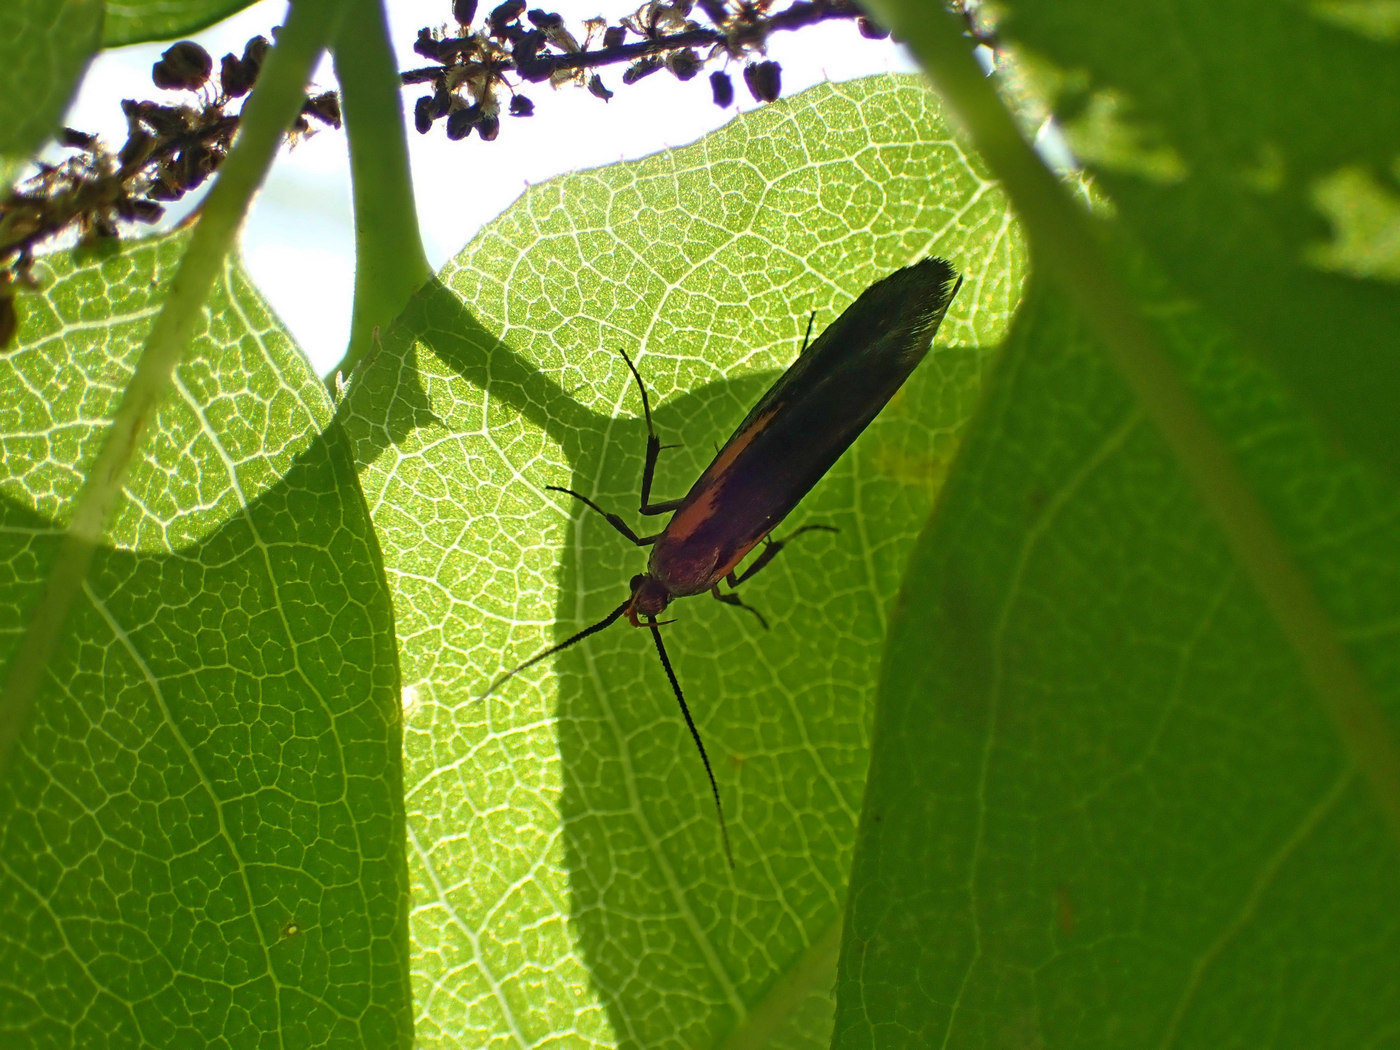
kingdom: Animalia
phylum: Arthropoda
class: Insecta
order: Lepidoptera
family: Oecophoridae
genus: Mathildana
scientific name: Mathildana newmanella
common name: Newman's mathildana moth
